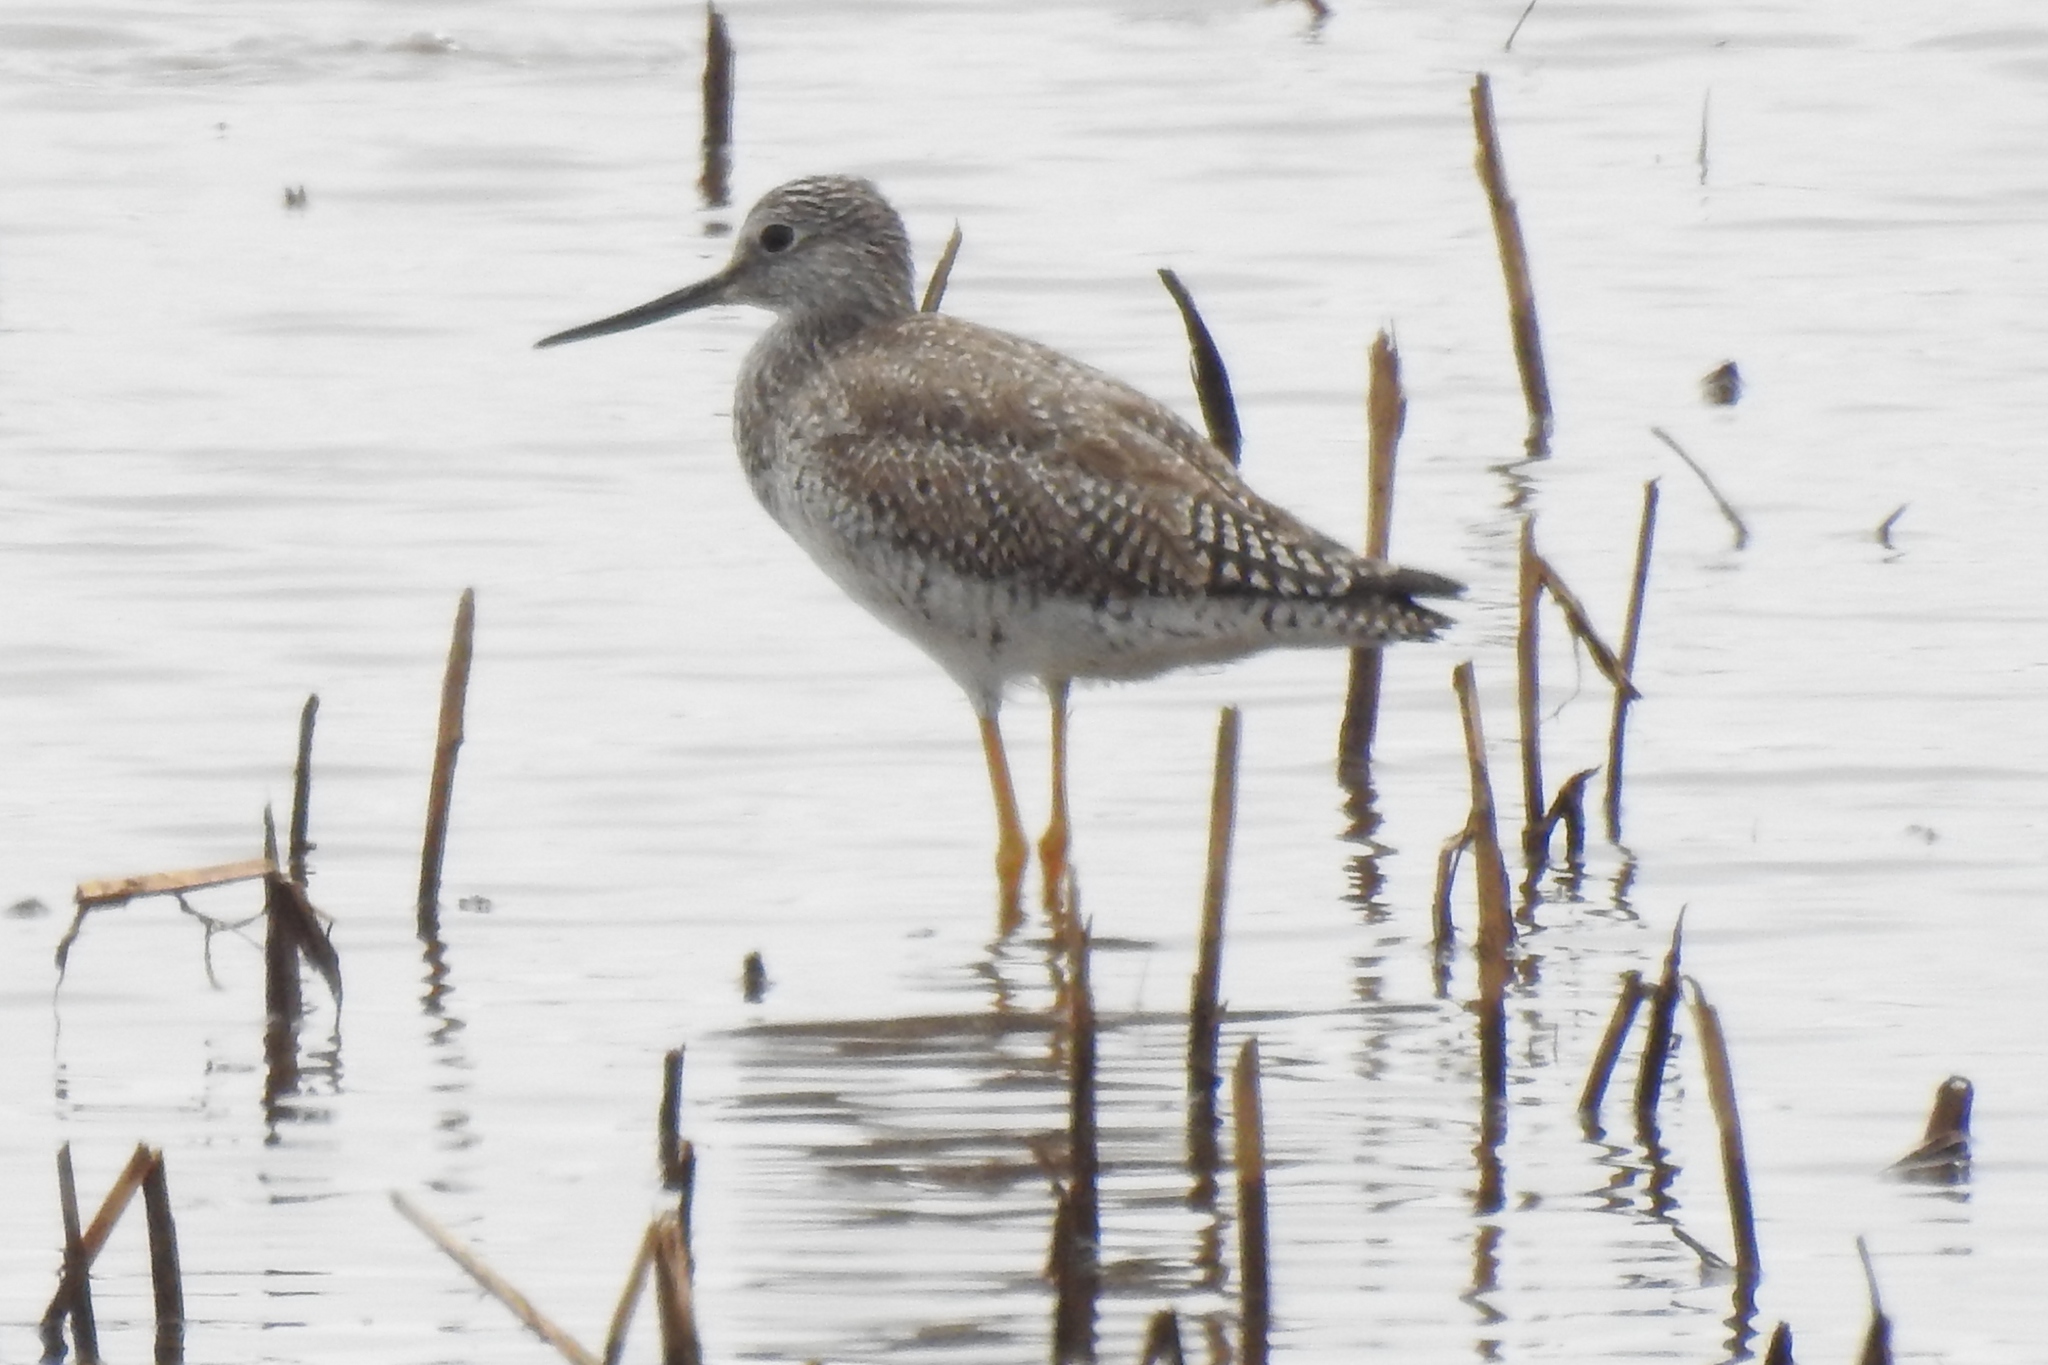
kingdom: Animalia
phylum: Chordata
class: Aves
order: Charadriiformes
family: Scolopacidae
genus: Tringa
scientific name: Tringa melanoleuca
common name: Greater yellowlegs
